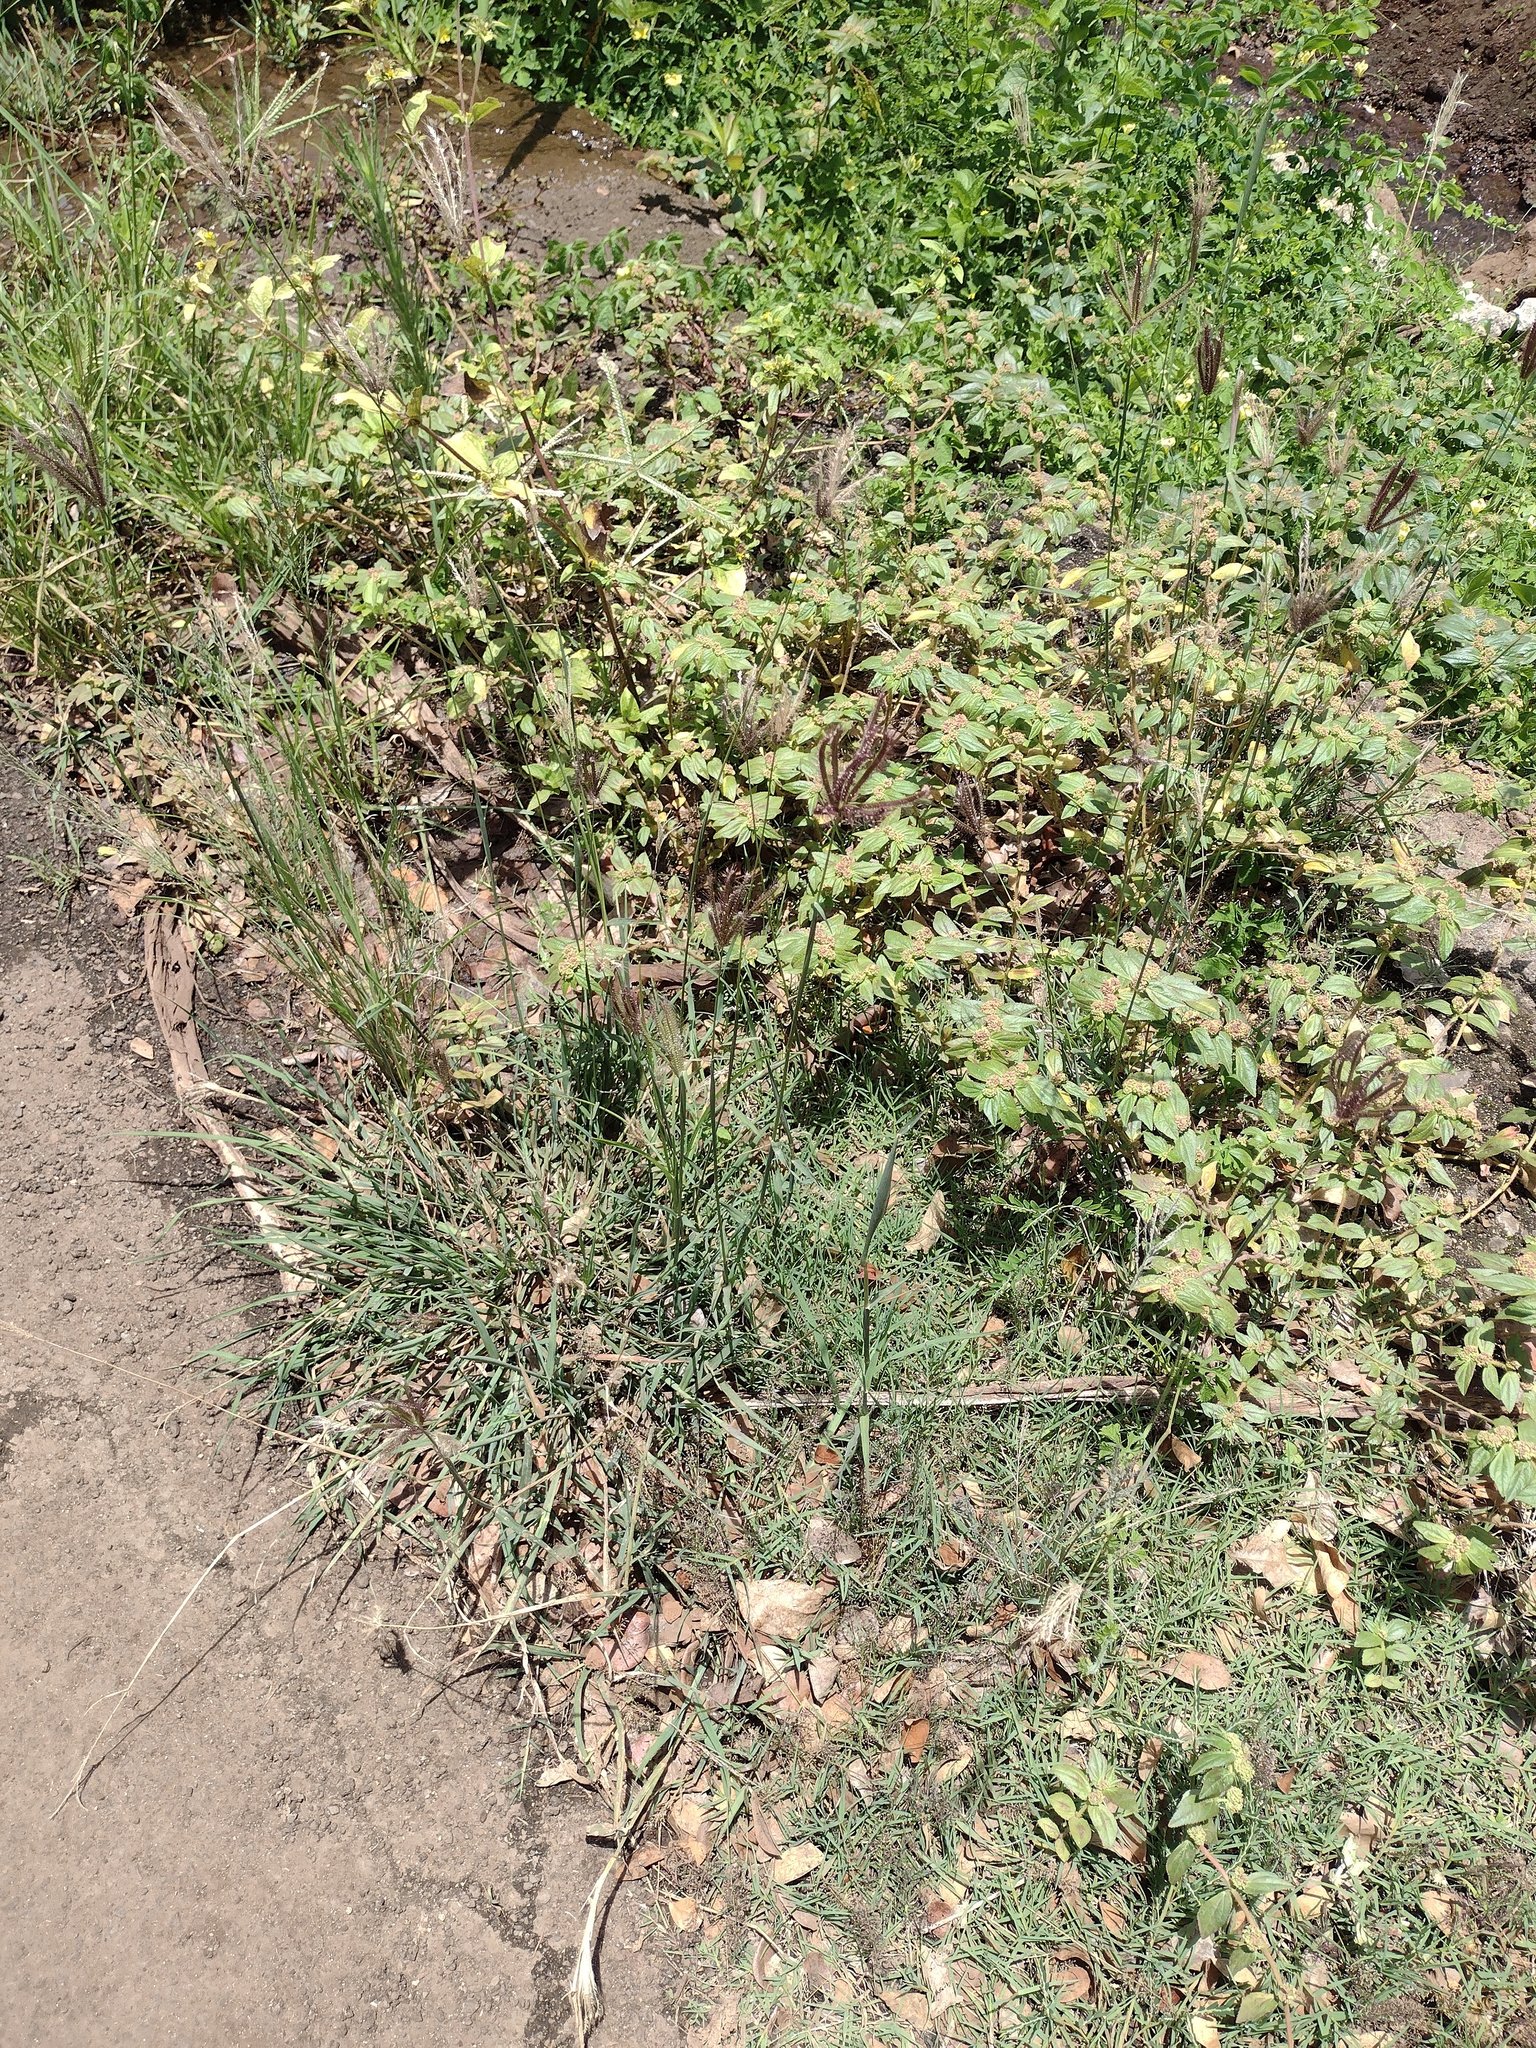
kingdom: Plantae
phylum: Tracheophyta
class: Magnoliopsida
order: Malpighiales
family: Euphorbiaceae
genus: Euphorbia
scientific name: Euphorbia hirta
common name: Pillpod sandmat
